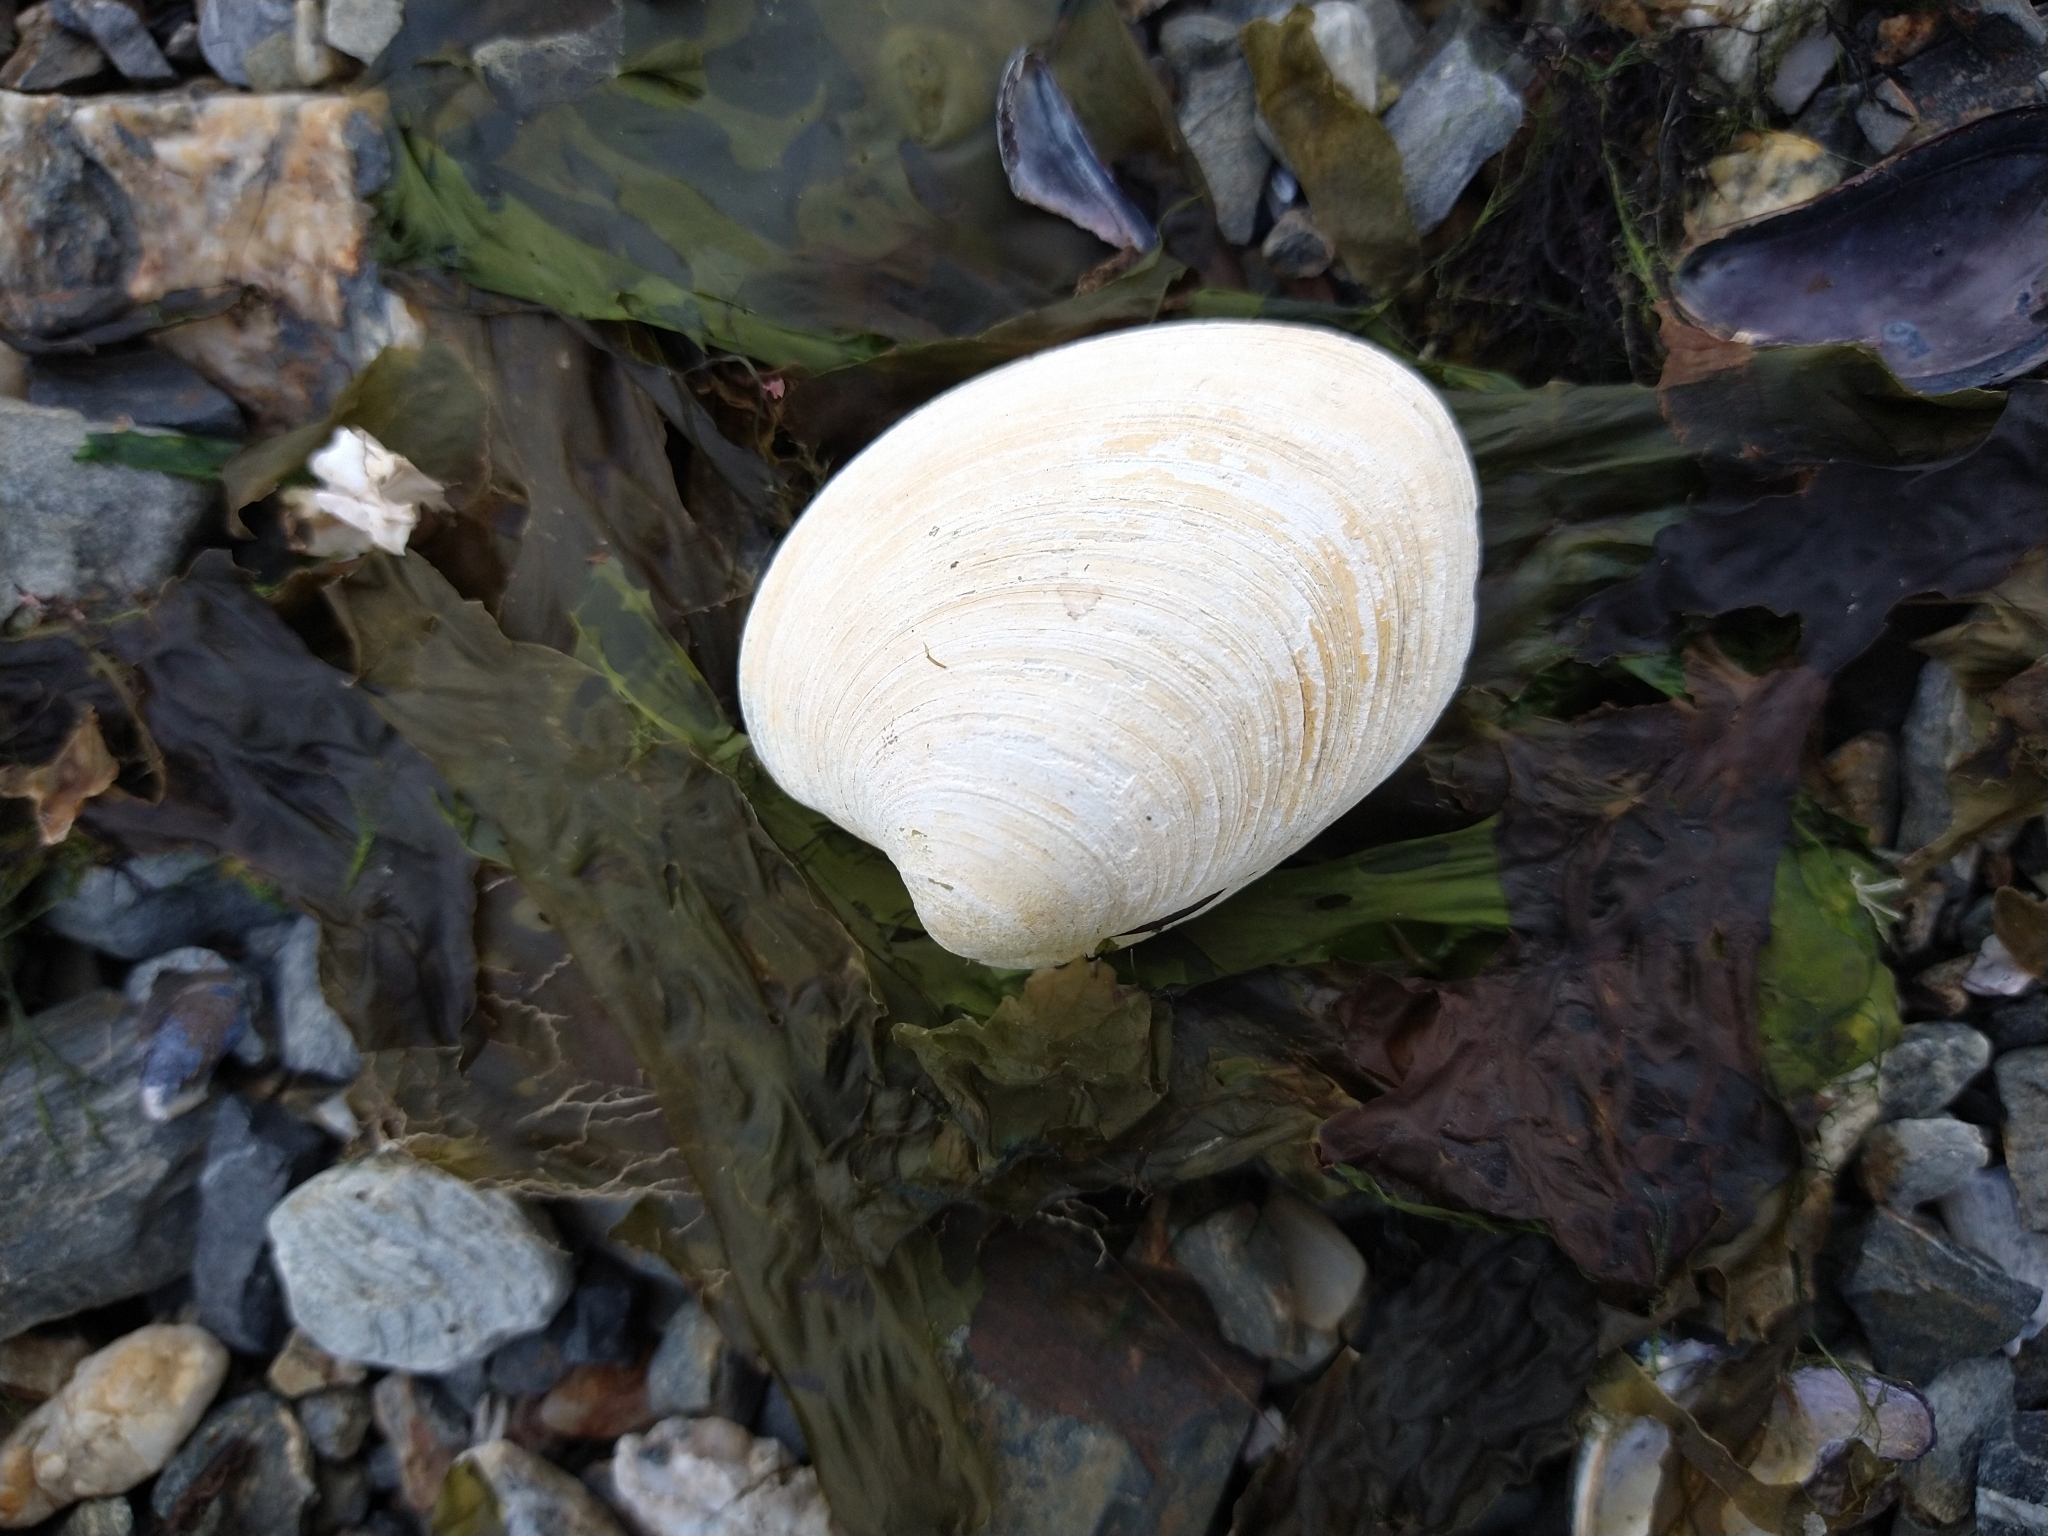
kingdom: Animalia
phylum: Mollusca
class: Bivalvia
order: Venerida
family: Veneridae
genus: Retrotapes
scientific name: Retrotapes exalbidus
